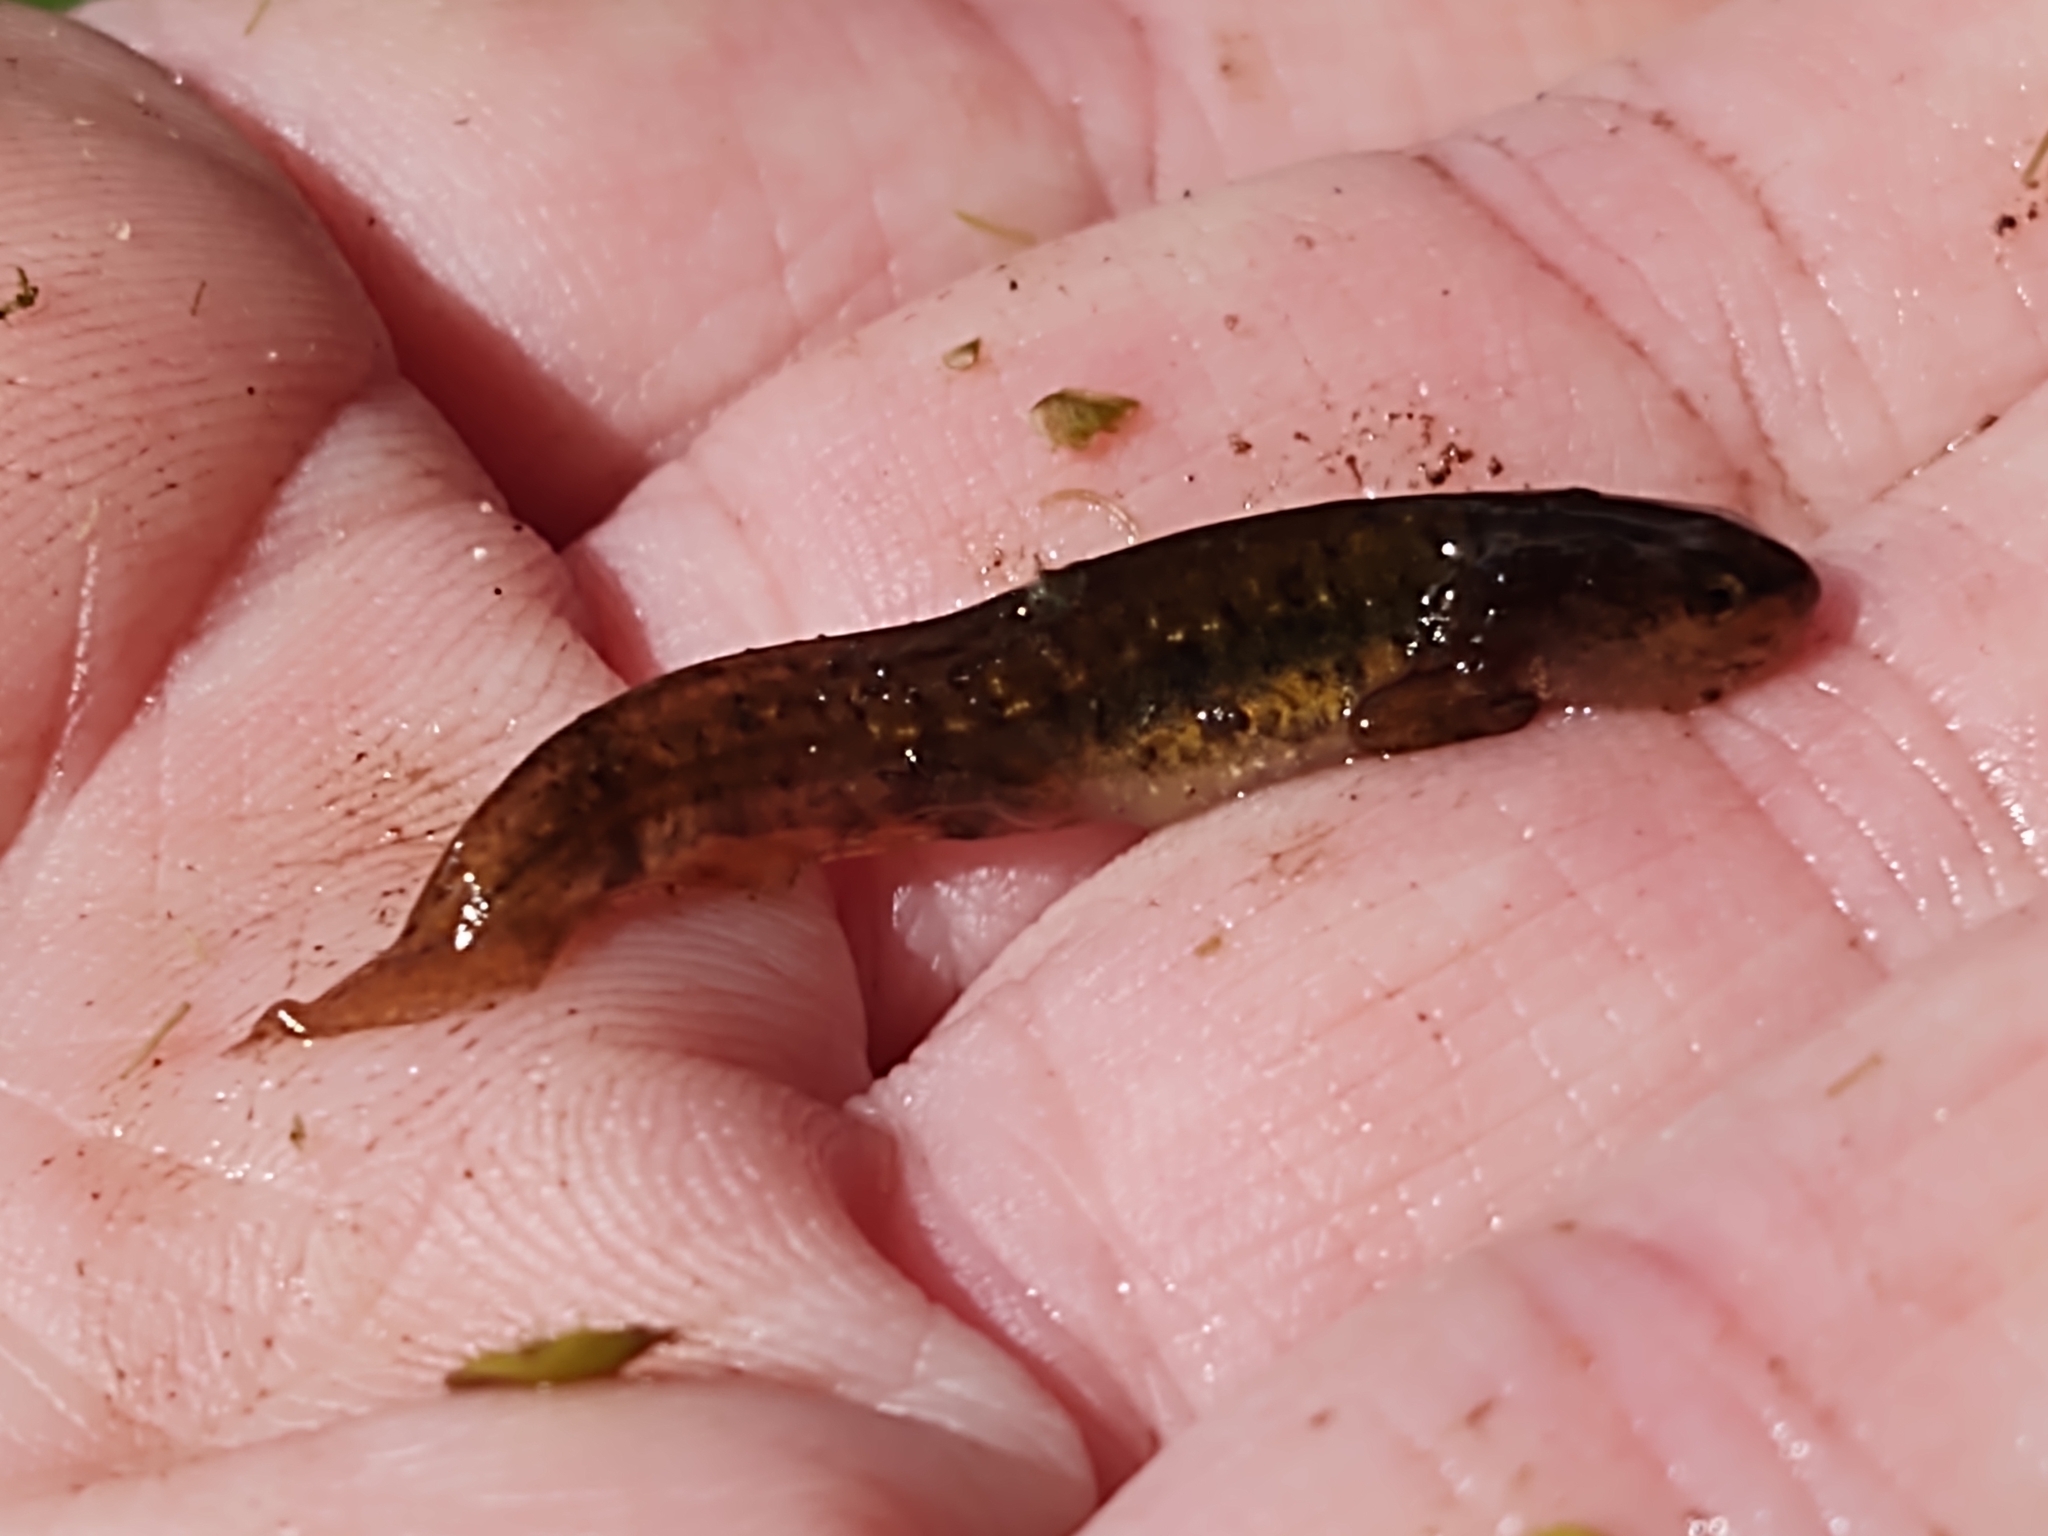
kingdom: Animalia
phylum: Chordata
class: Amphibia
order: Caudata
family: Salamandridae
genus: Lissotriton
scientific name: Lissotriton vulgaris
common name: Smooth newt
